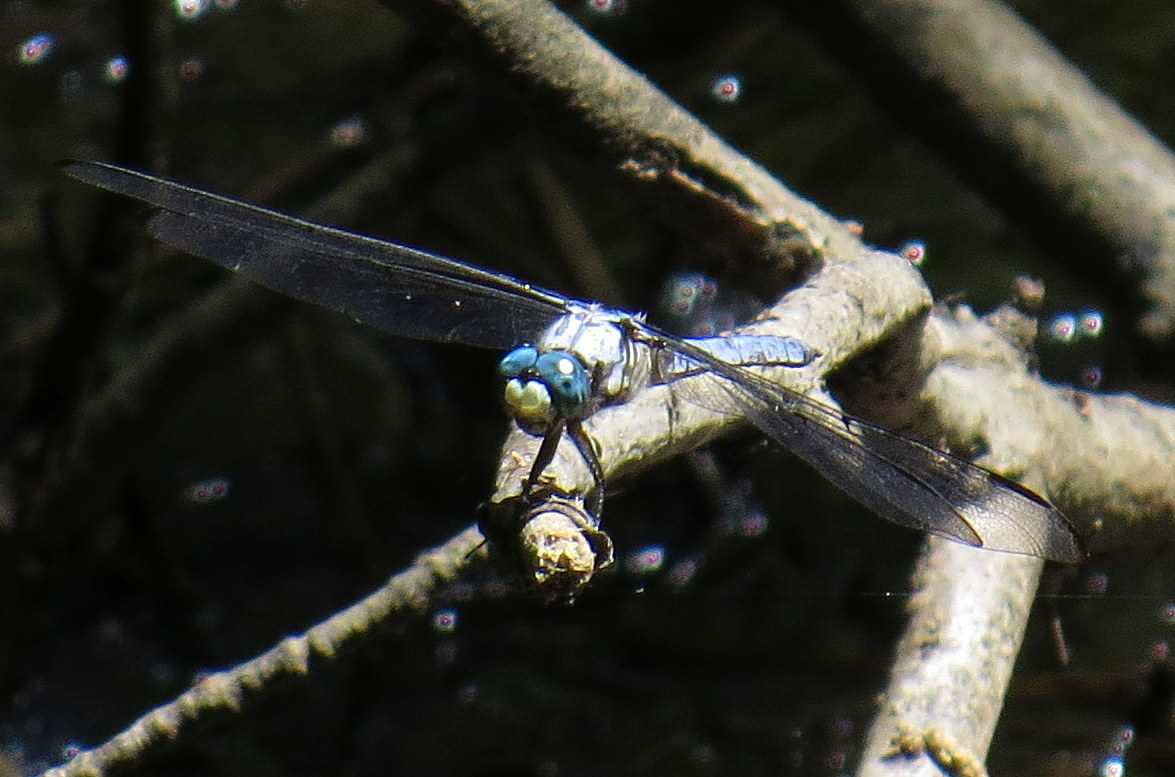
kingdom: Animalia
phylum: Arthropoda
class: Insecta
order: Odonata
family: Libellulidae
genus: Libellula
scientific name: Libellula vibrans
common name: Great blue skimmer
